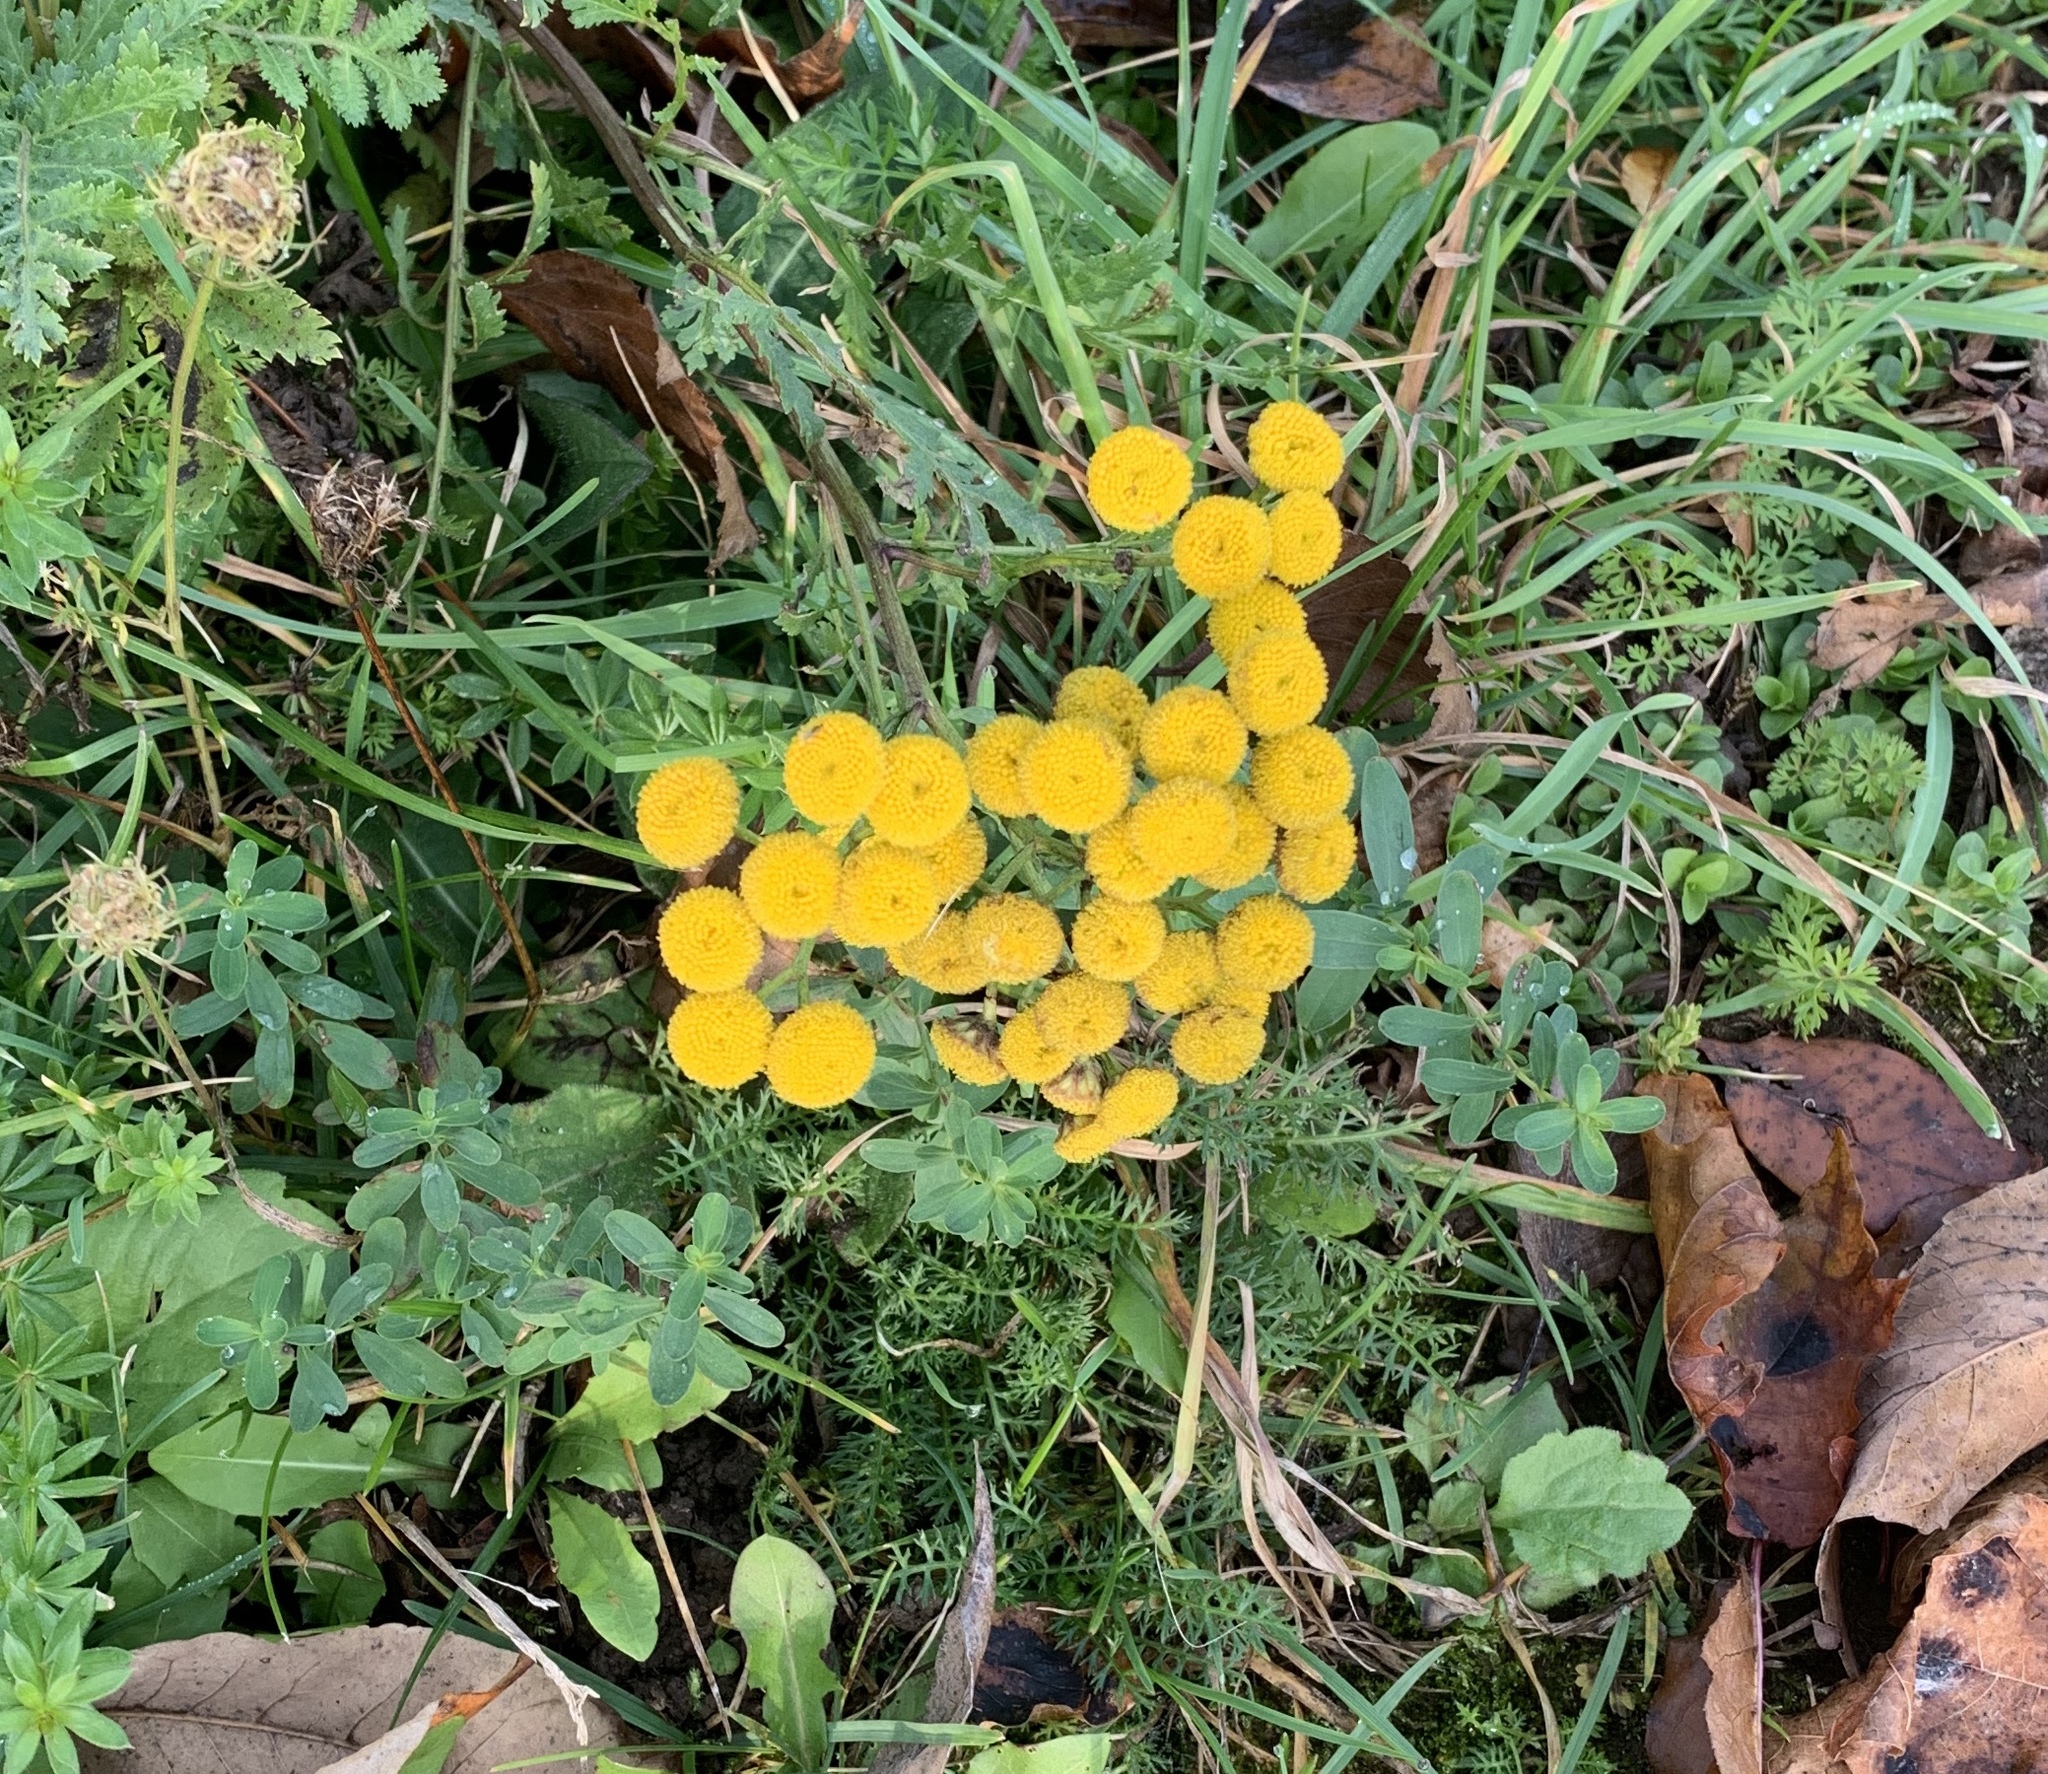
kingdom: Plantae
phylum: Tracheophyta
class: Magnoliopsida
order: Asterales
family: Asteraceae
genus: Tanacetum
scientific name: Tanacetum vulgare
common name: Common tansy
